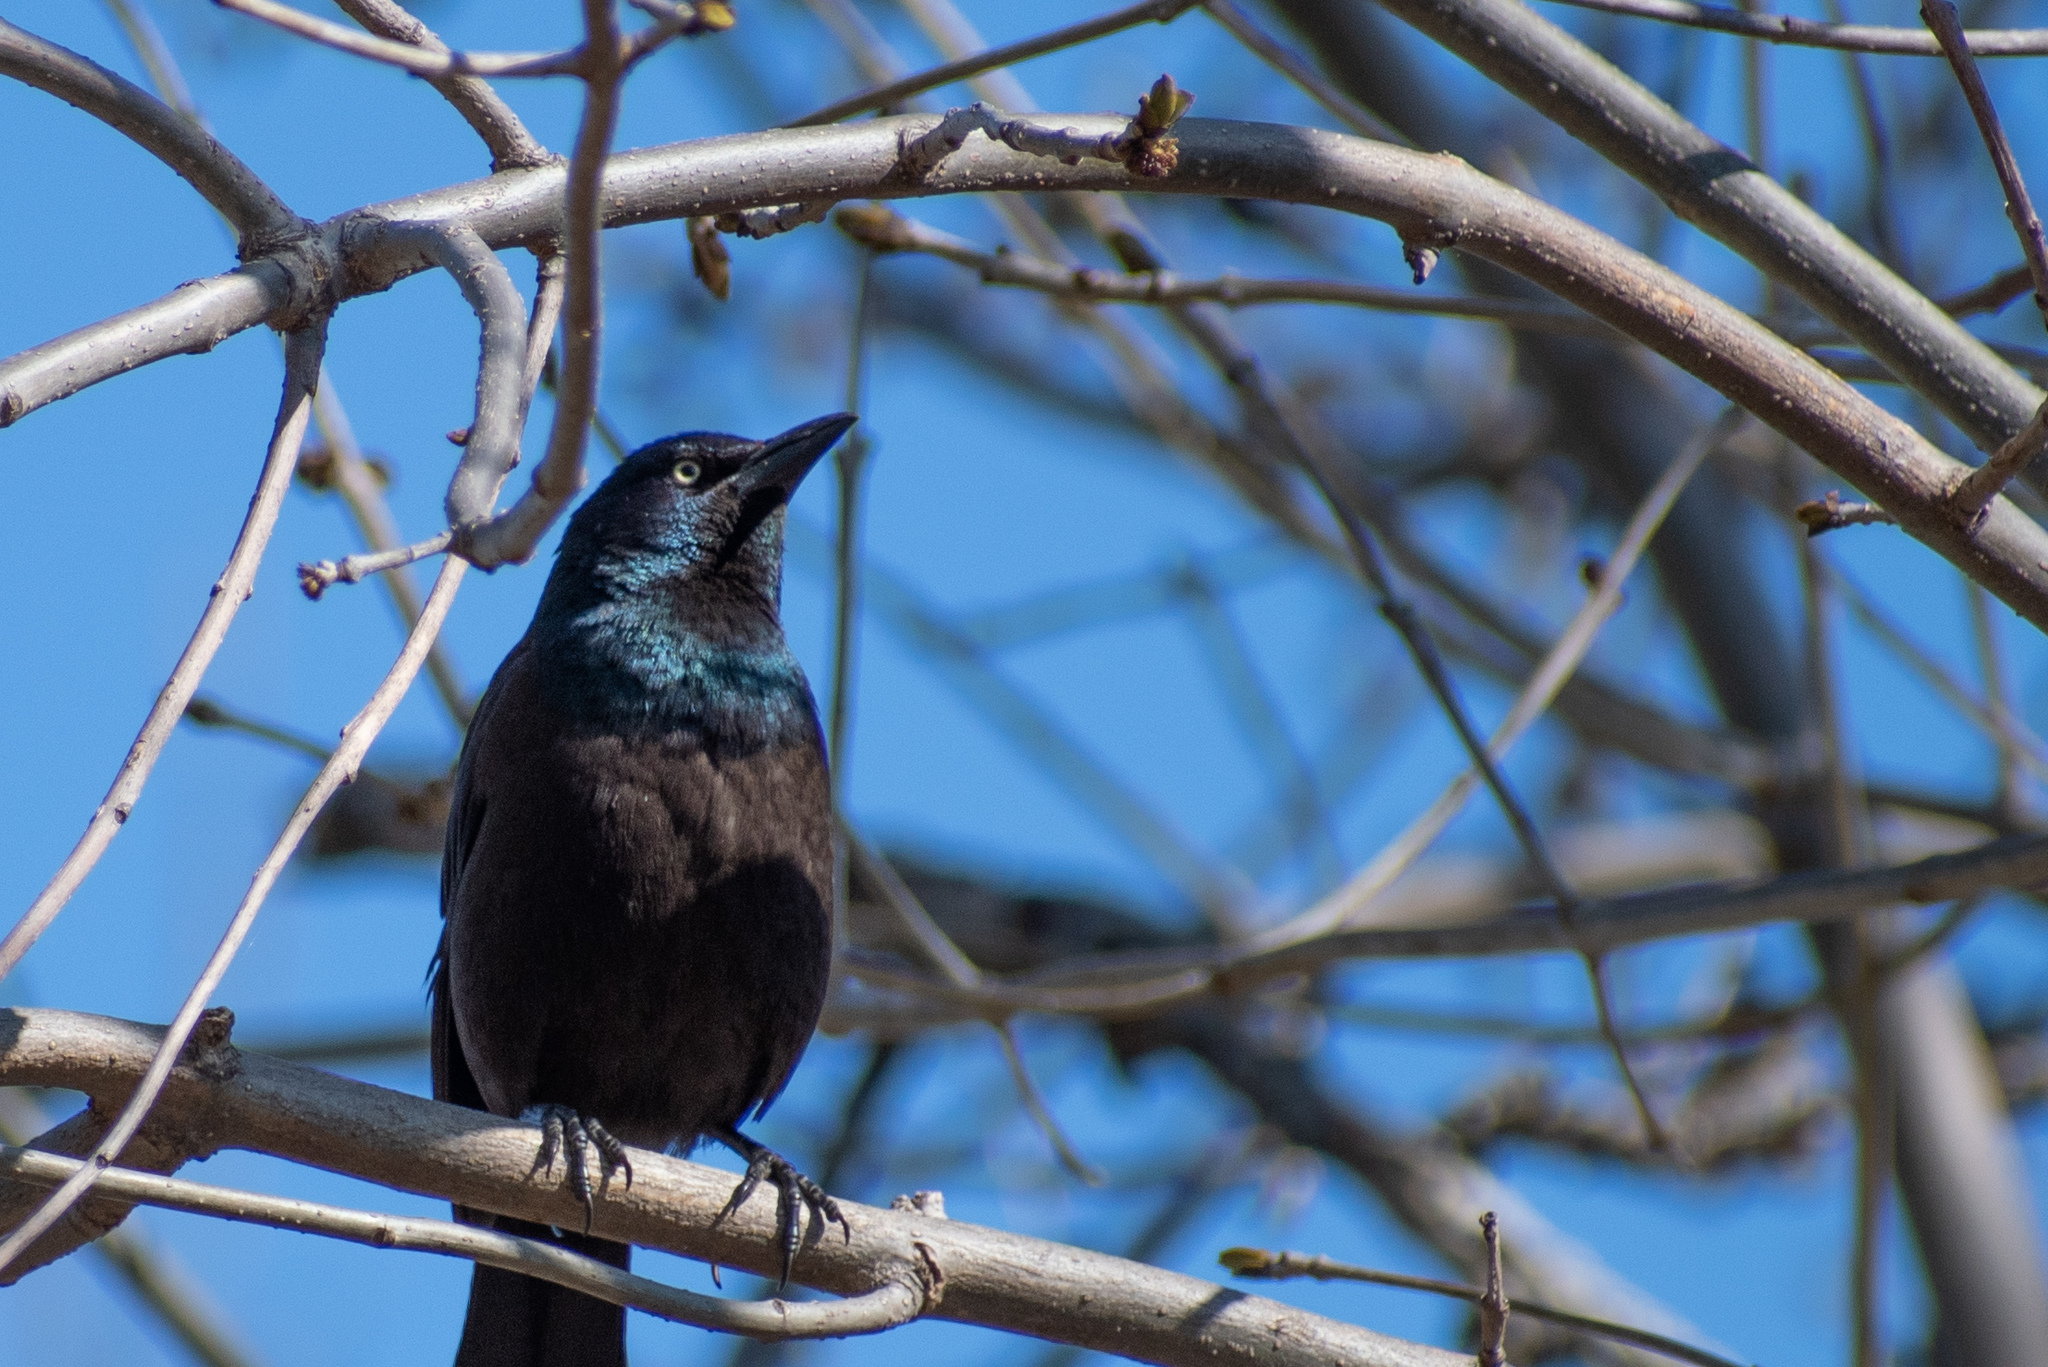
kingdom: Animalia
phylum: Chordata
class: Aves
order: Passeriformes
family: Icteridae
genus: Quiscalus
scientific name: Quiscalus quiscula
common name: Common grackle
